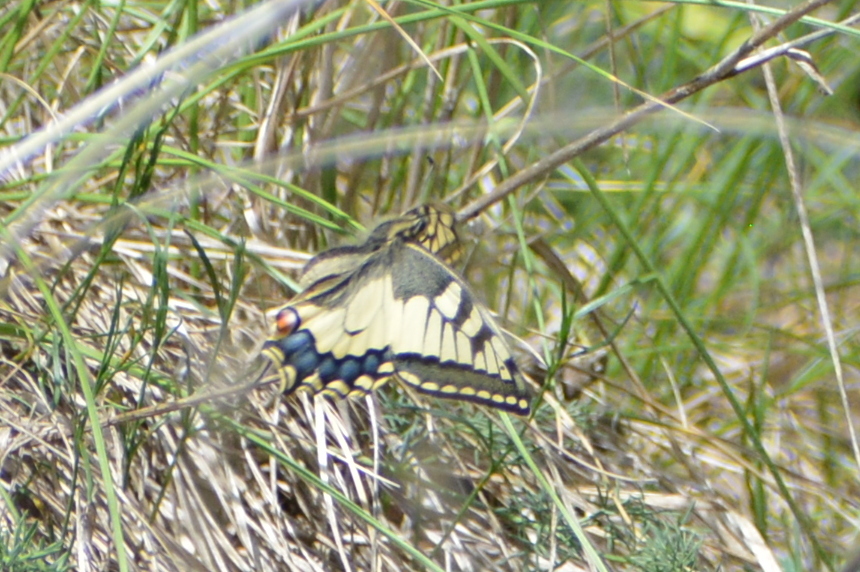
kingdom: Animalia
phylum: Arthropoda
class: Insecta
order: Lepidoptera
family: Papilionidae
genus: Papilio
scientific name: Papilio machaon
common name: Swallowtail
